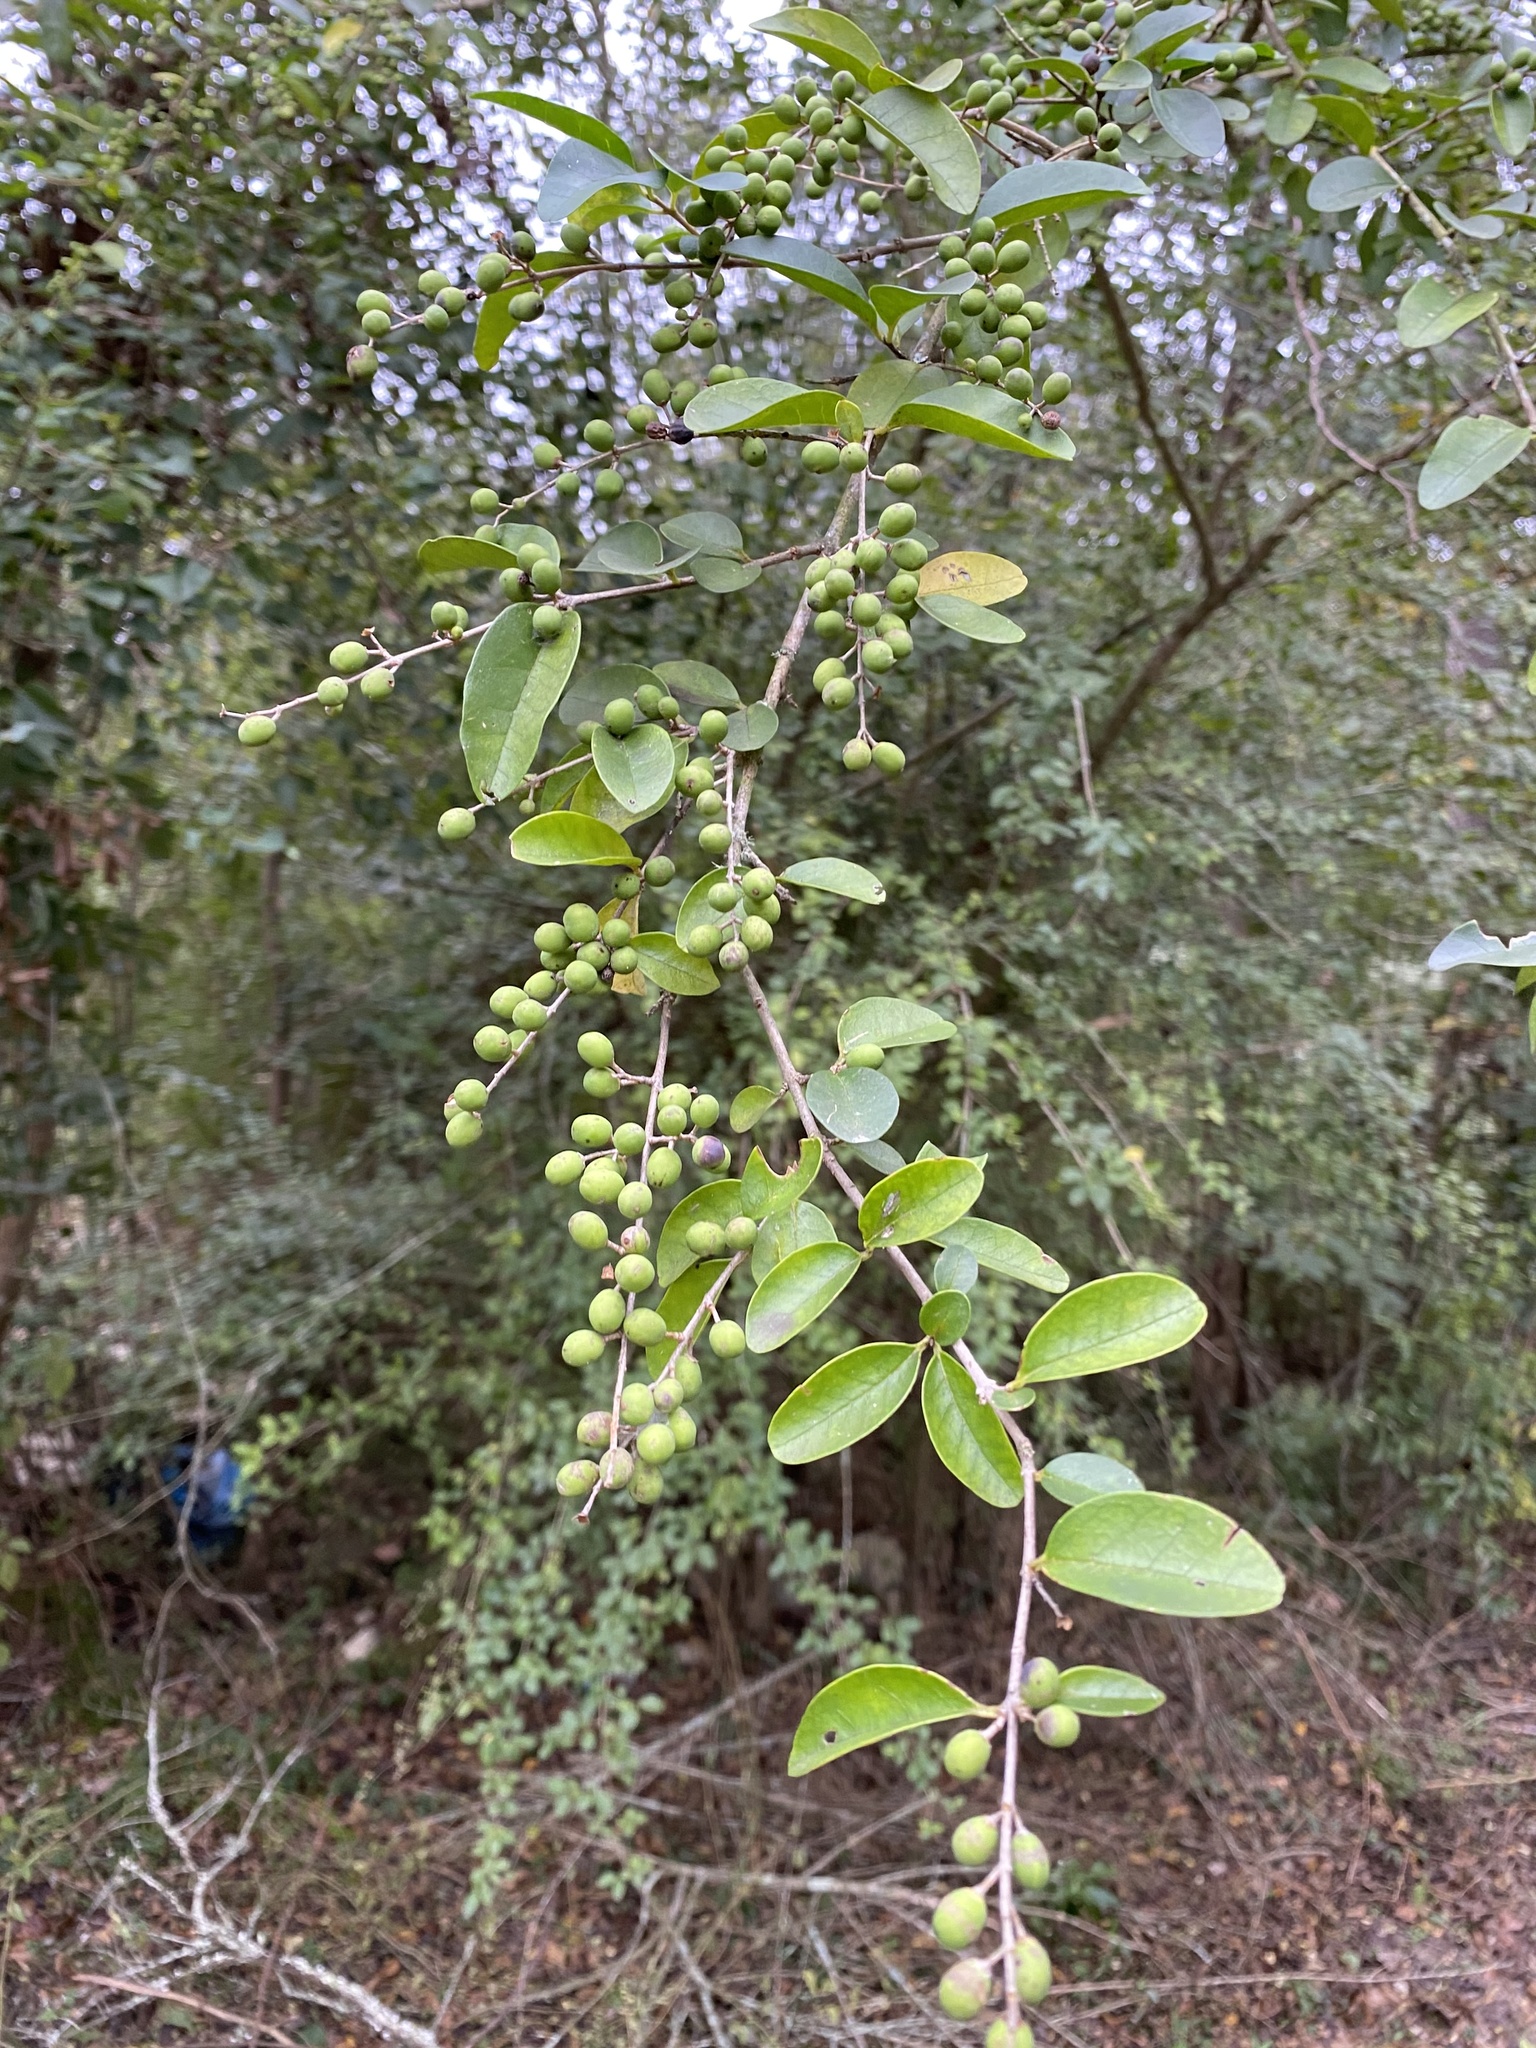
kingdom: Plantae
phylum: Tracheophyta
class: Magnoliopsida
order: Lamiales
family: Oleaceae
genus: Ligustrum
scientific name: Ligustrum sinense
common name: Chinese privet
